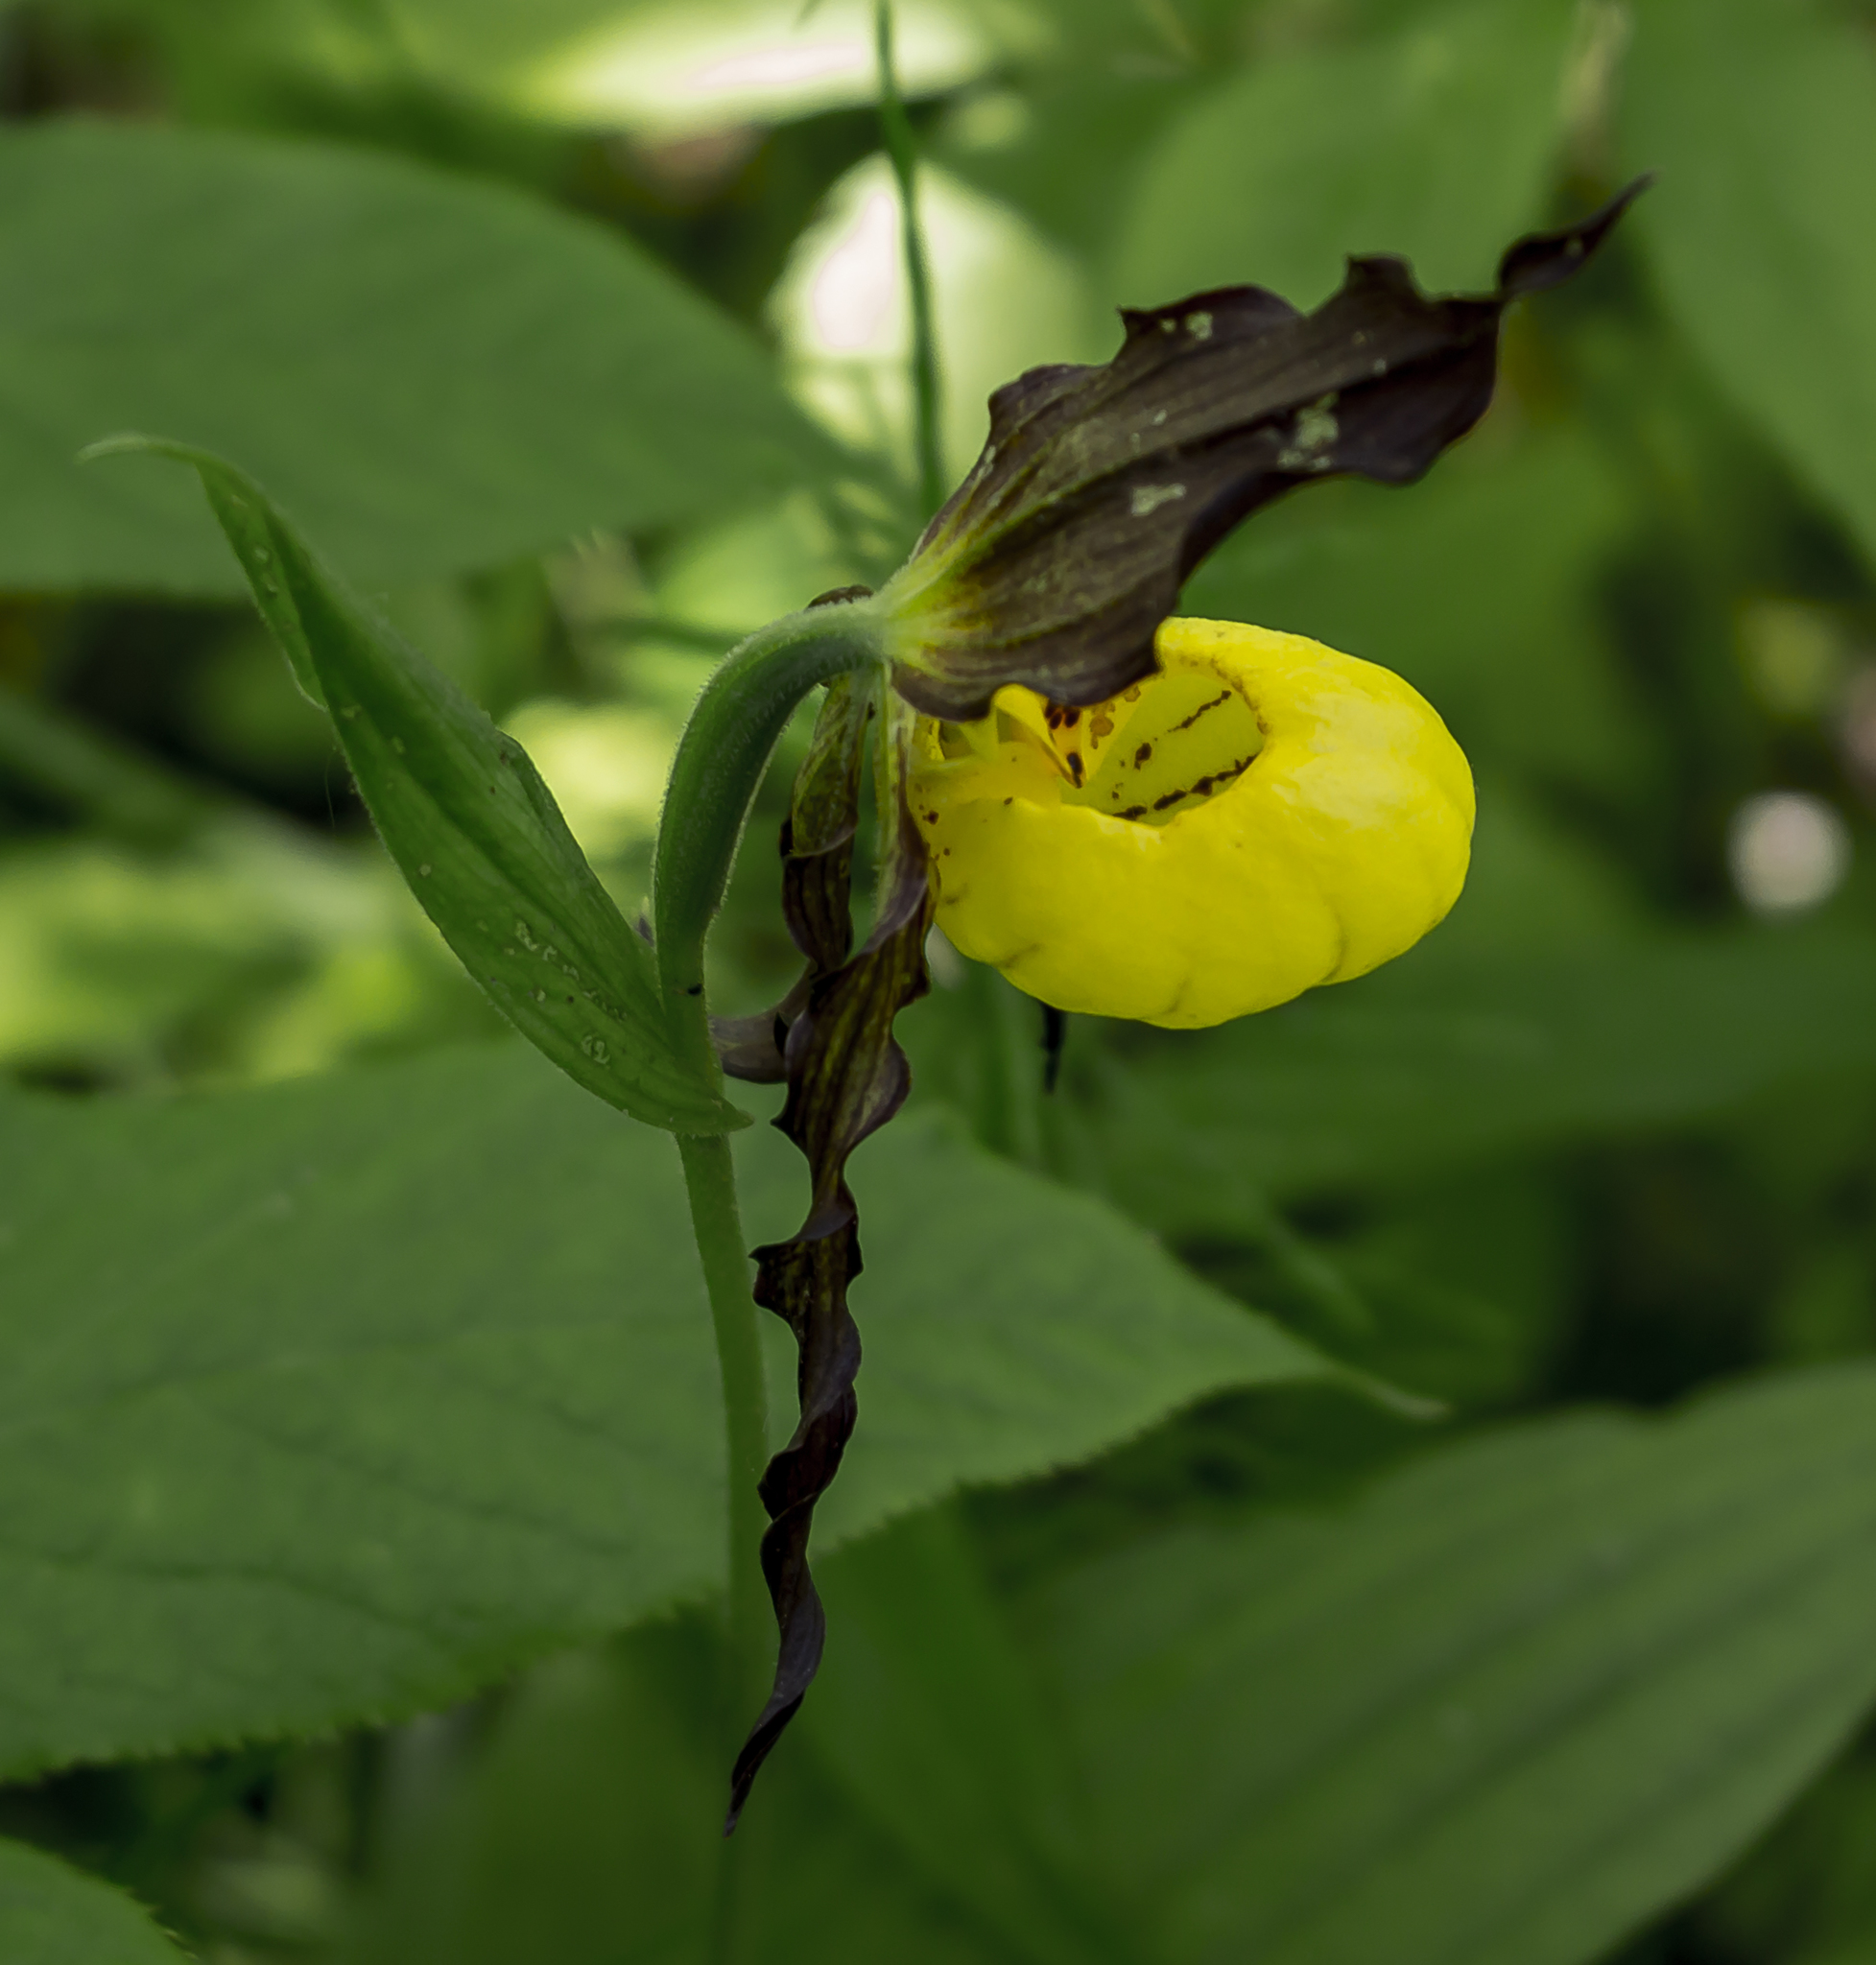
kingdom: Plantae
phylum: Tracheophyta
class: Liliopsida
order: Asparagales
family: Orchidaceae
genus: Cypripedium
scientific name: Cypripedium parviflorum
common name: American yellow lady's-slipper
